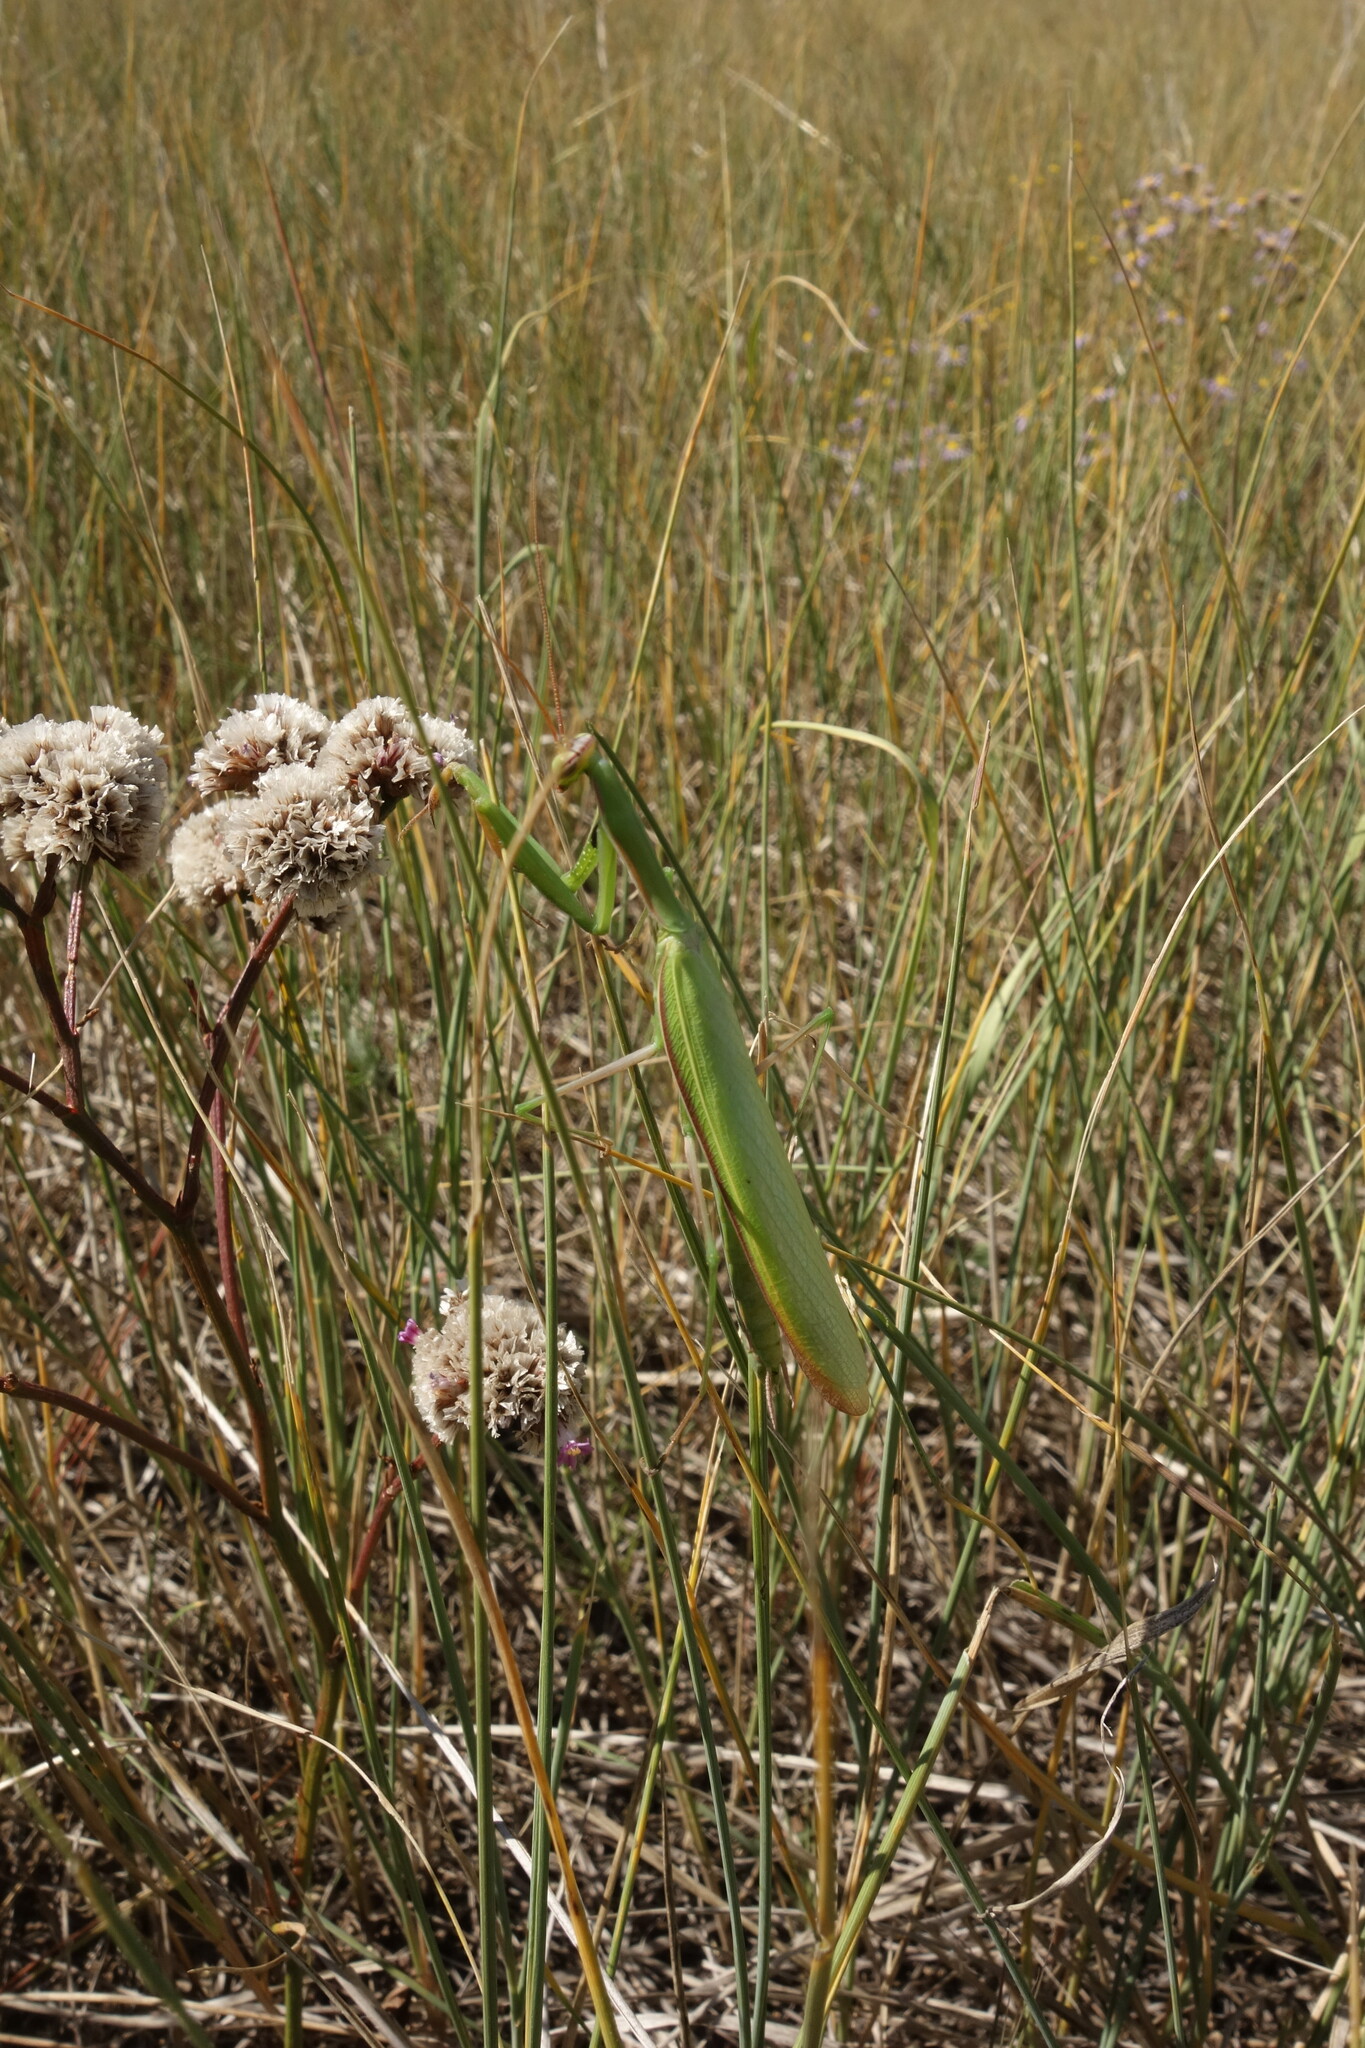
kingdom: Animalia
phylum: Arthropoda
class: Insecta
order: Mantodea
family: Mantidae
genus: Mantis
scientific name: Mantis religiosa
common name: Praying mantis
